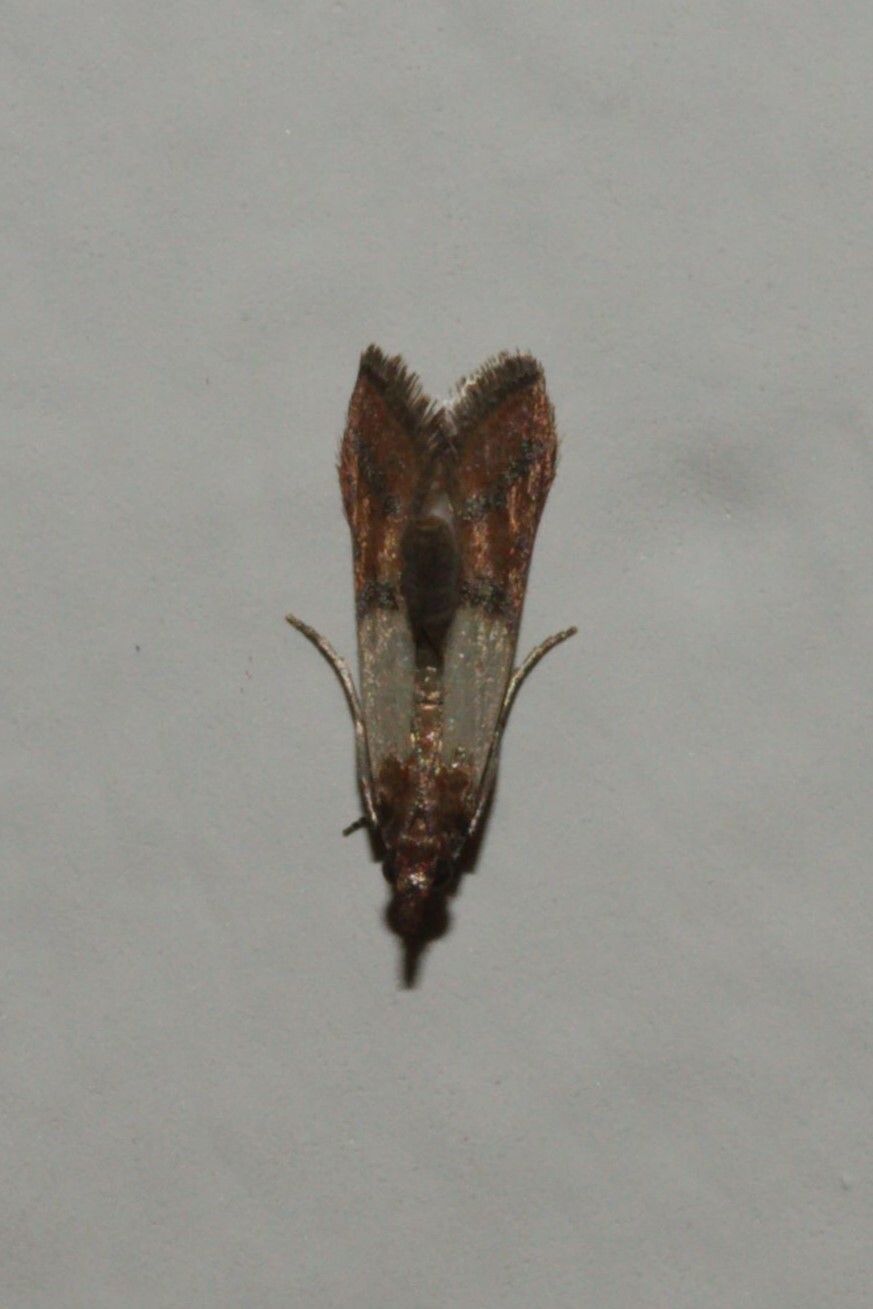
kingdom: Animalia
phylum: Arthropoda
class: Insecta
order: Lepidoptera
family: Pyralidae
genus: Plodia
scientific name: Plodia interpunctella
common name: Indian meal moth
